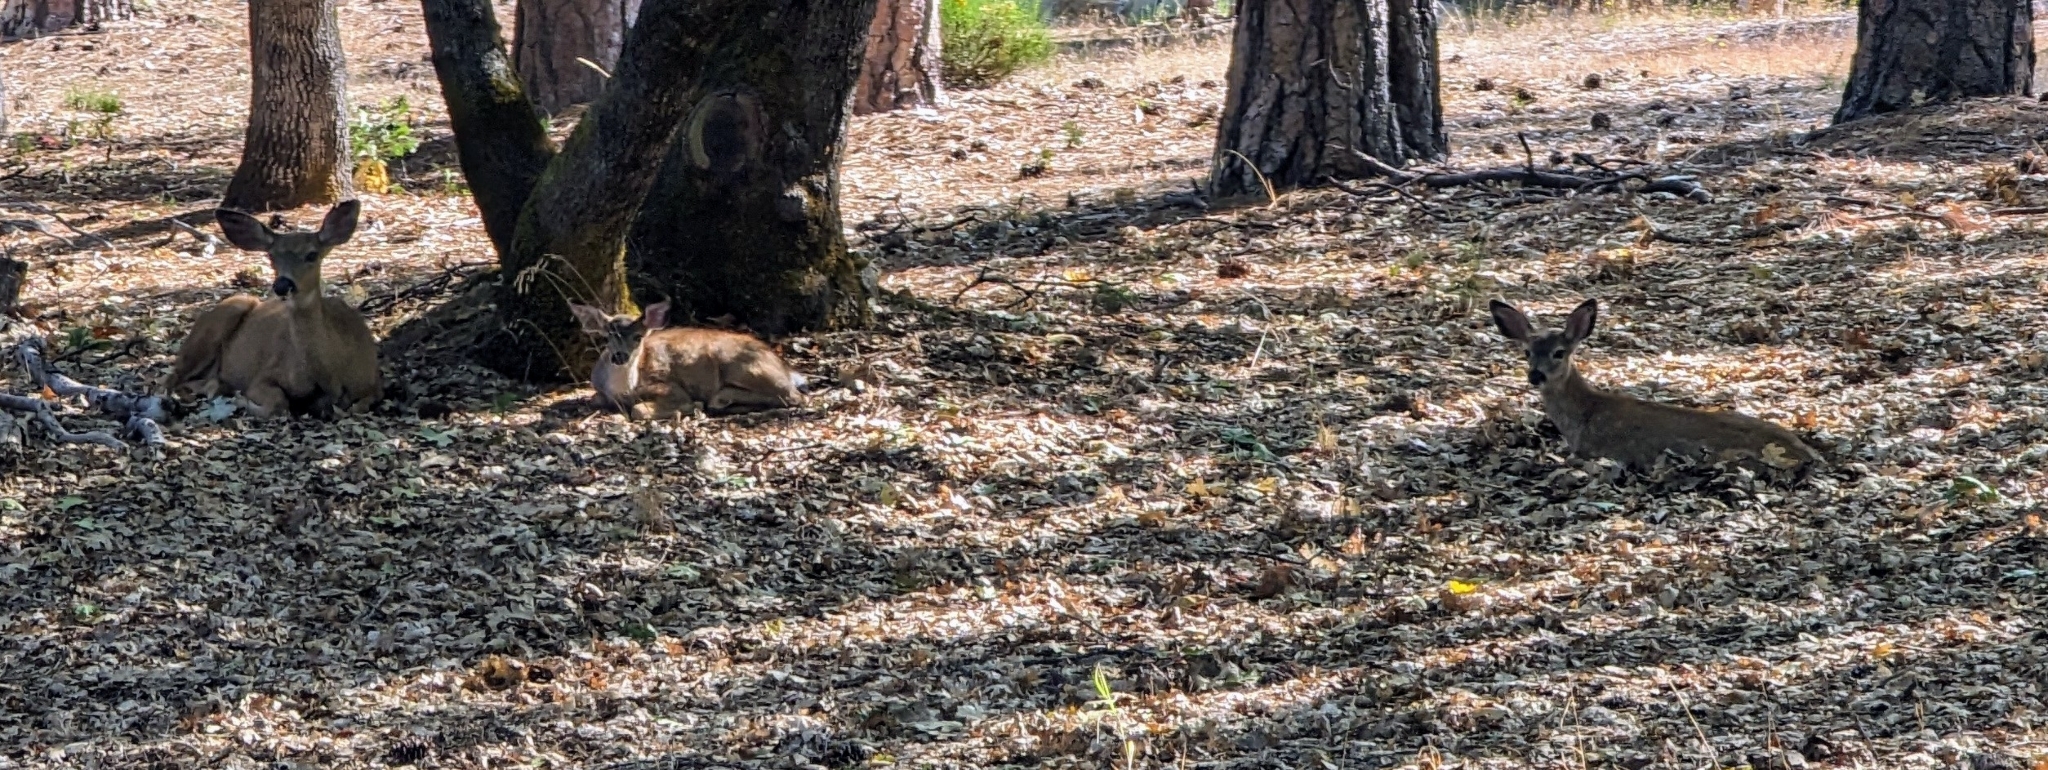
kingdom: Animalia
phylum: Chordata
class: Mammalia
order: Artiodactyla
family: Cervidae
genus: Odocoileus
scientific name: Odocoileus hemionus
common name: Mule deer
